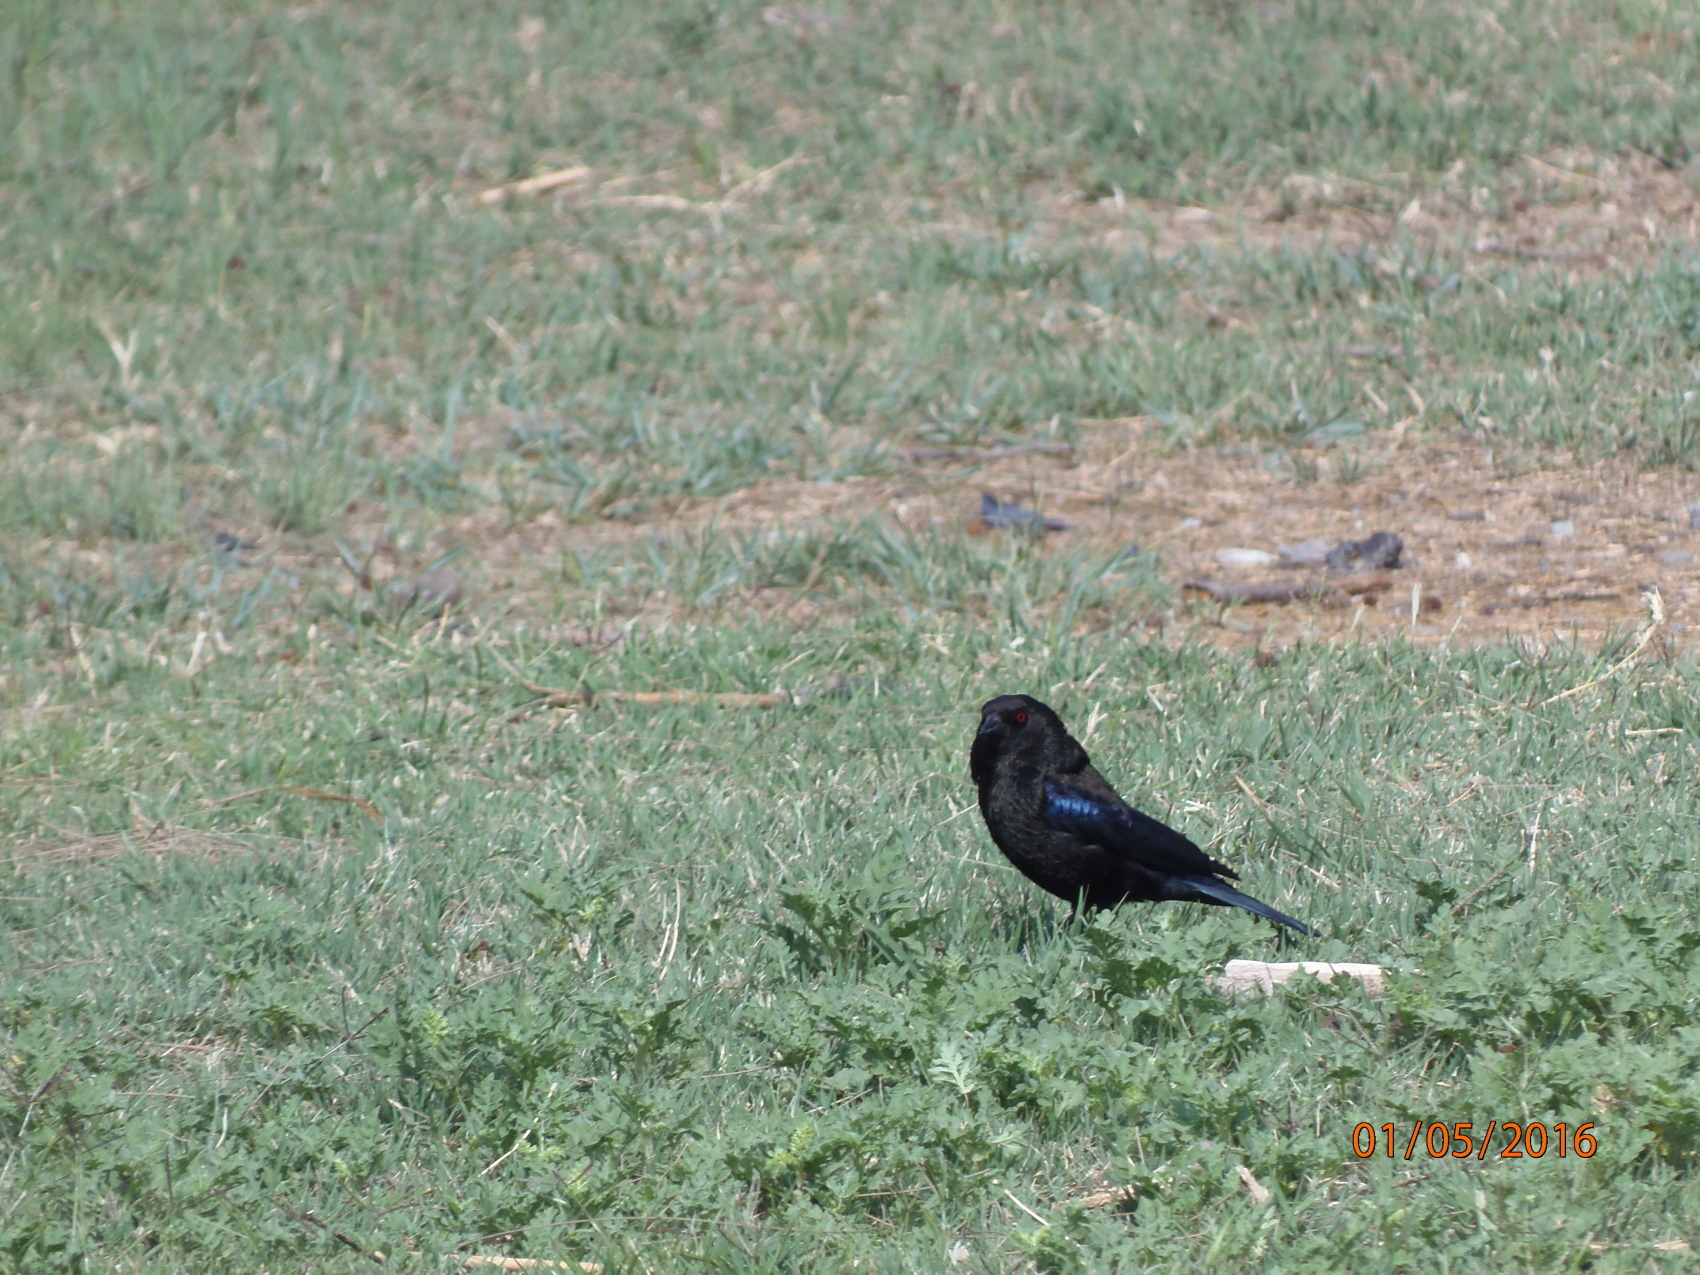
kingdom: Animalia
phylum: Chordata
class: Aves
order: Passeriformes
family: Icteridae
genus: Molothrus
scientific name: Molothrus aeneus
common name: Bronzed cowbird
